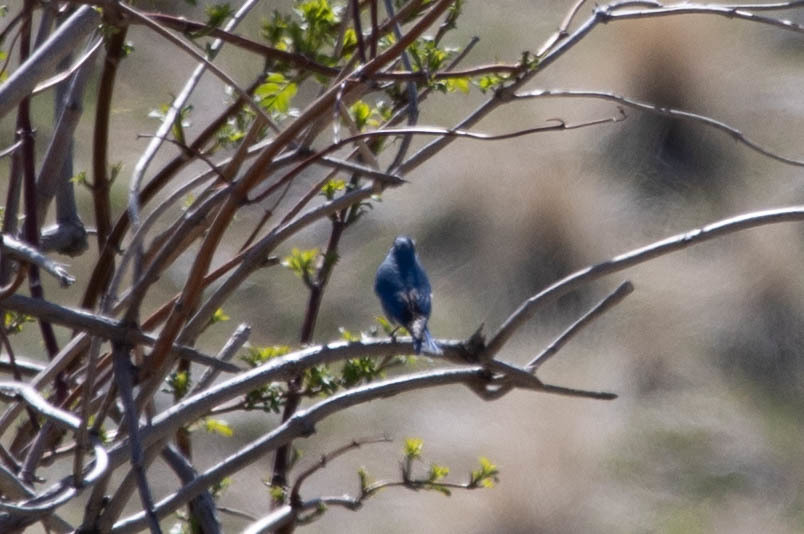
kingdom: Animalia
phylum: Chordata
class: Aves
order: Passeriformes
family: Turdidae
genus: Sialia
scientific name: Sialia currucoides
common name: Mountain bluebird
